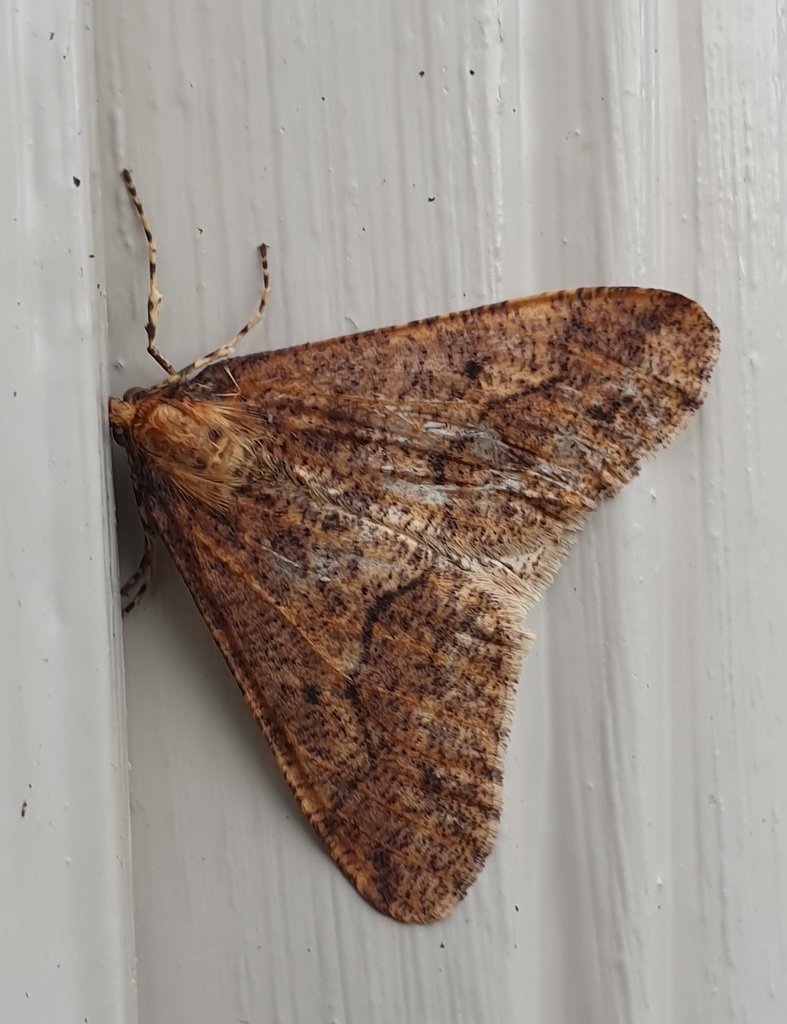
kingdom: Animalia
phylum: Arthropoda
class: Insecta
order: Lepidoptera
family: Geometridae
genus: Erannis
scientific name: Erannis defoliaria
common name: Mottled umber
